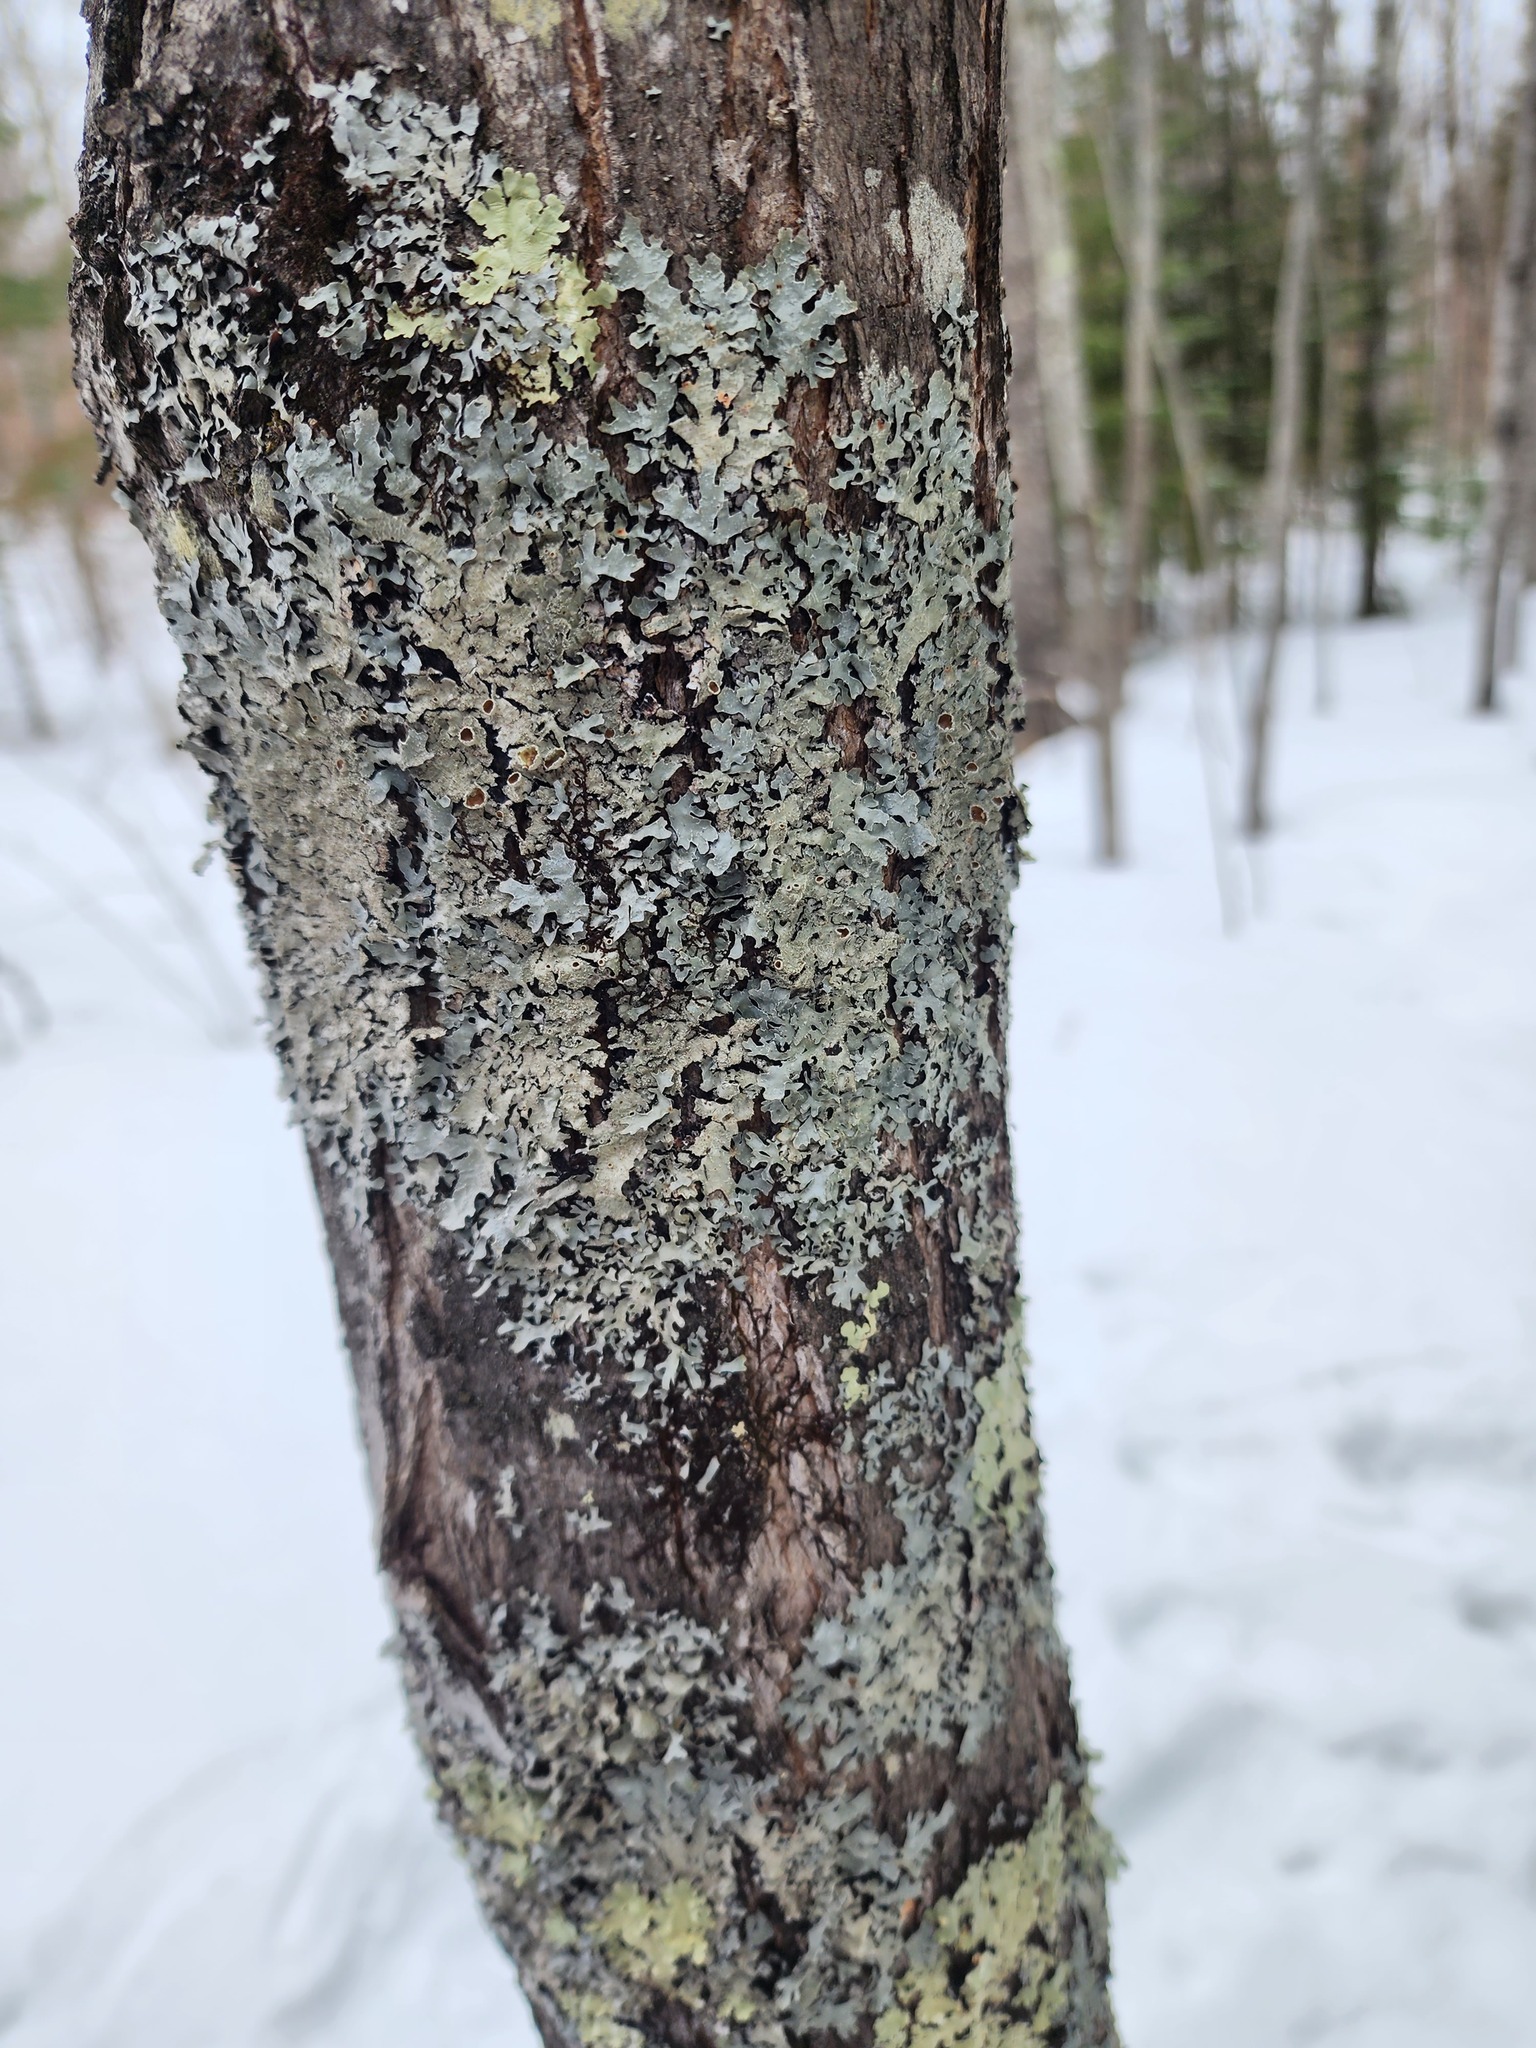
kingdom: Fungi
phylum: Ascomycota
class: Lecanoromycetes
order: Lecanorales
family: Parmeliaceae
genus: Parmelia
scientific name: Parmelia squarrosa
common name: Bottle brush shield lichen
